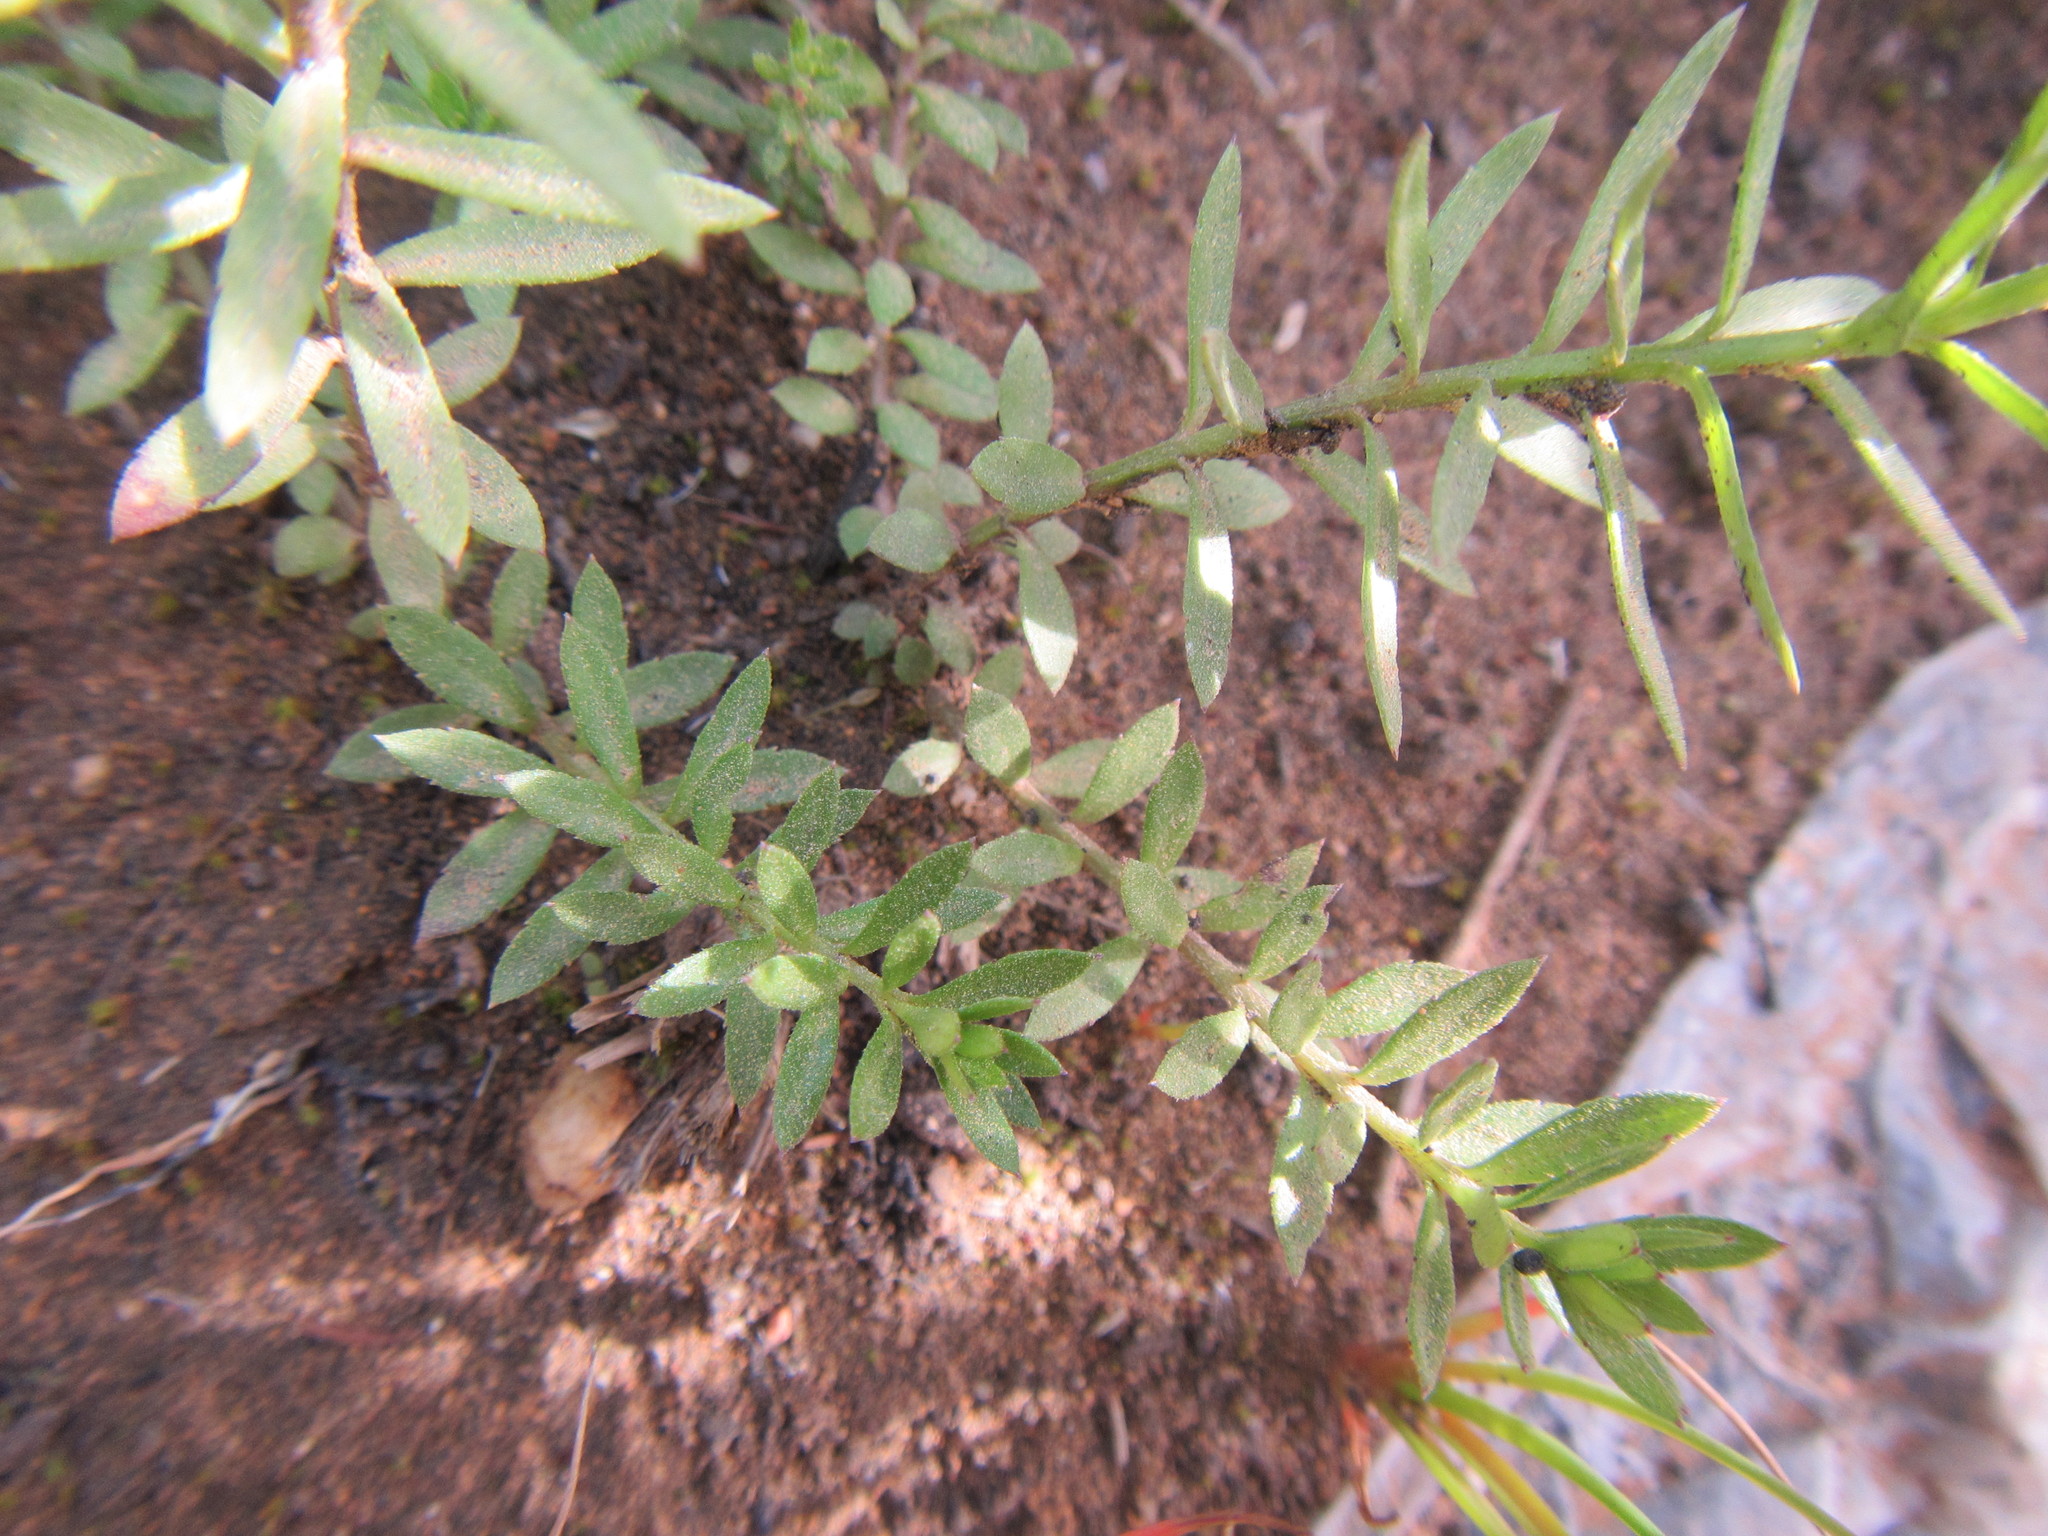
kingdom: Plantae
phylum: Tracheophyta
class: Magnoliopsida
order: Asterales
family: Campanulaceae
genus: Monopsis
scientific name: Monopsis simplex
